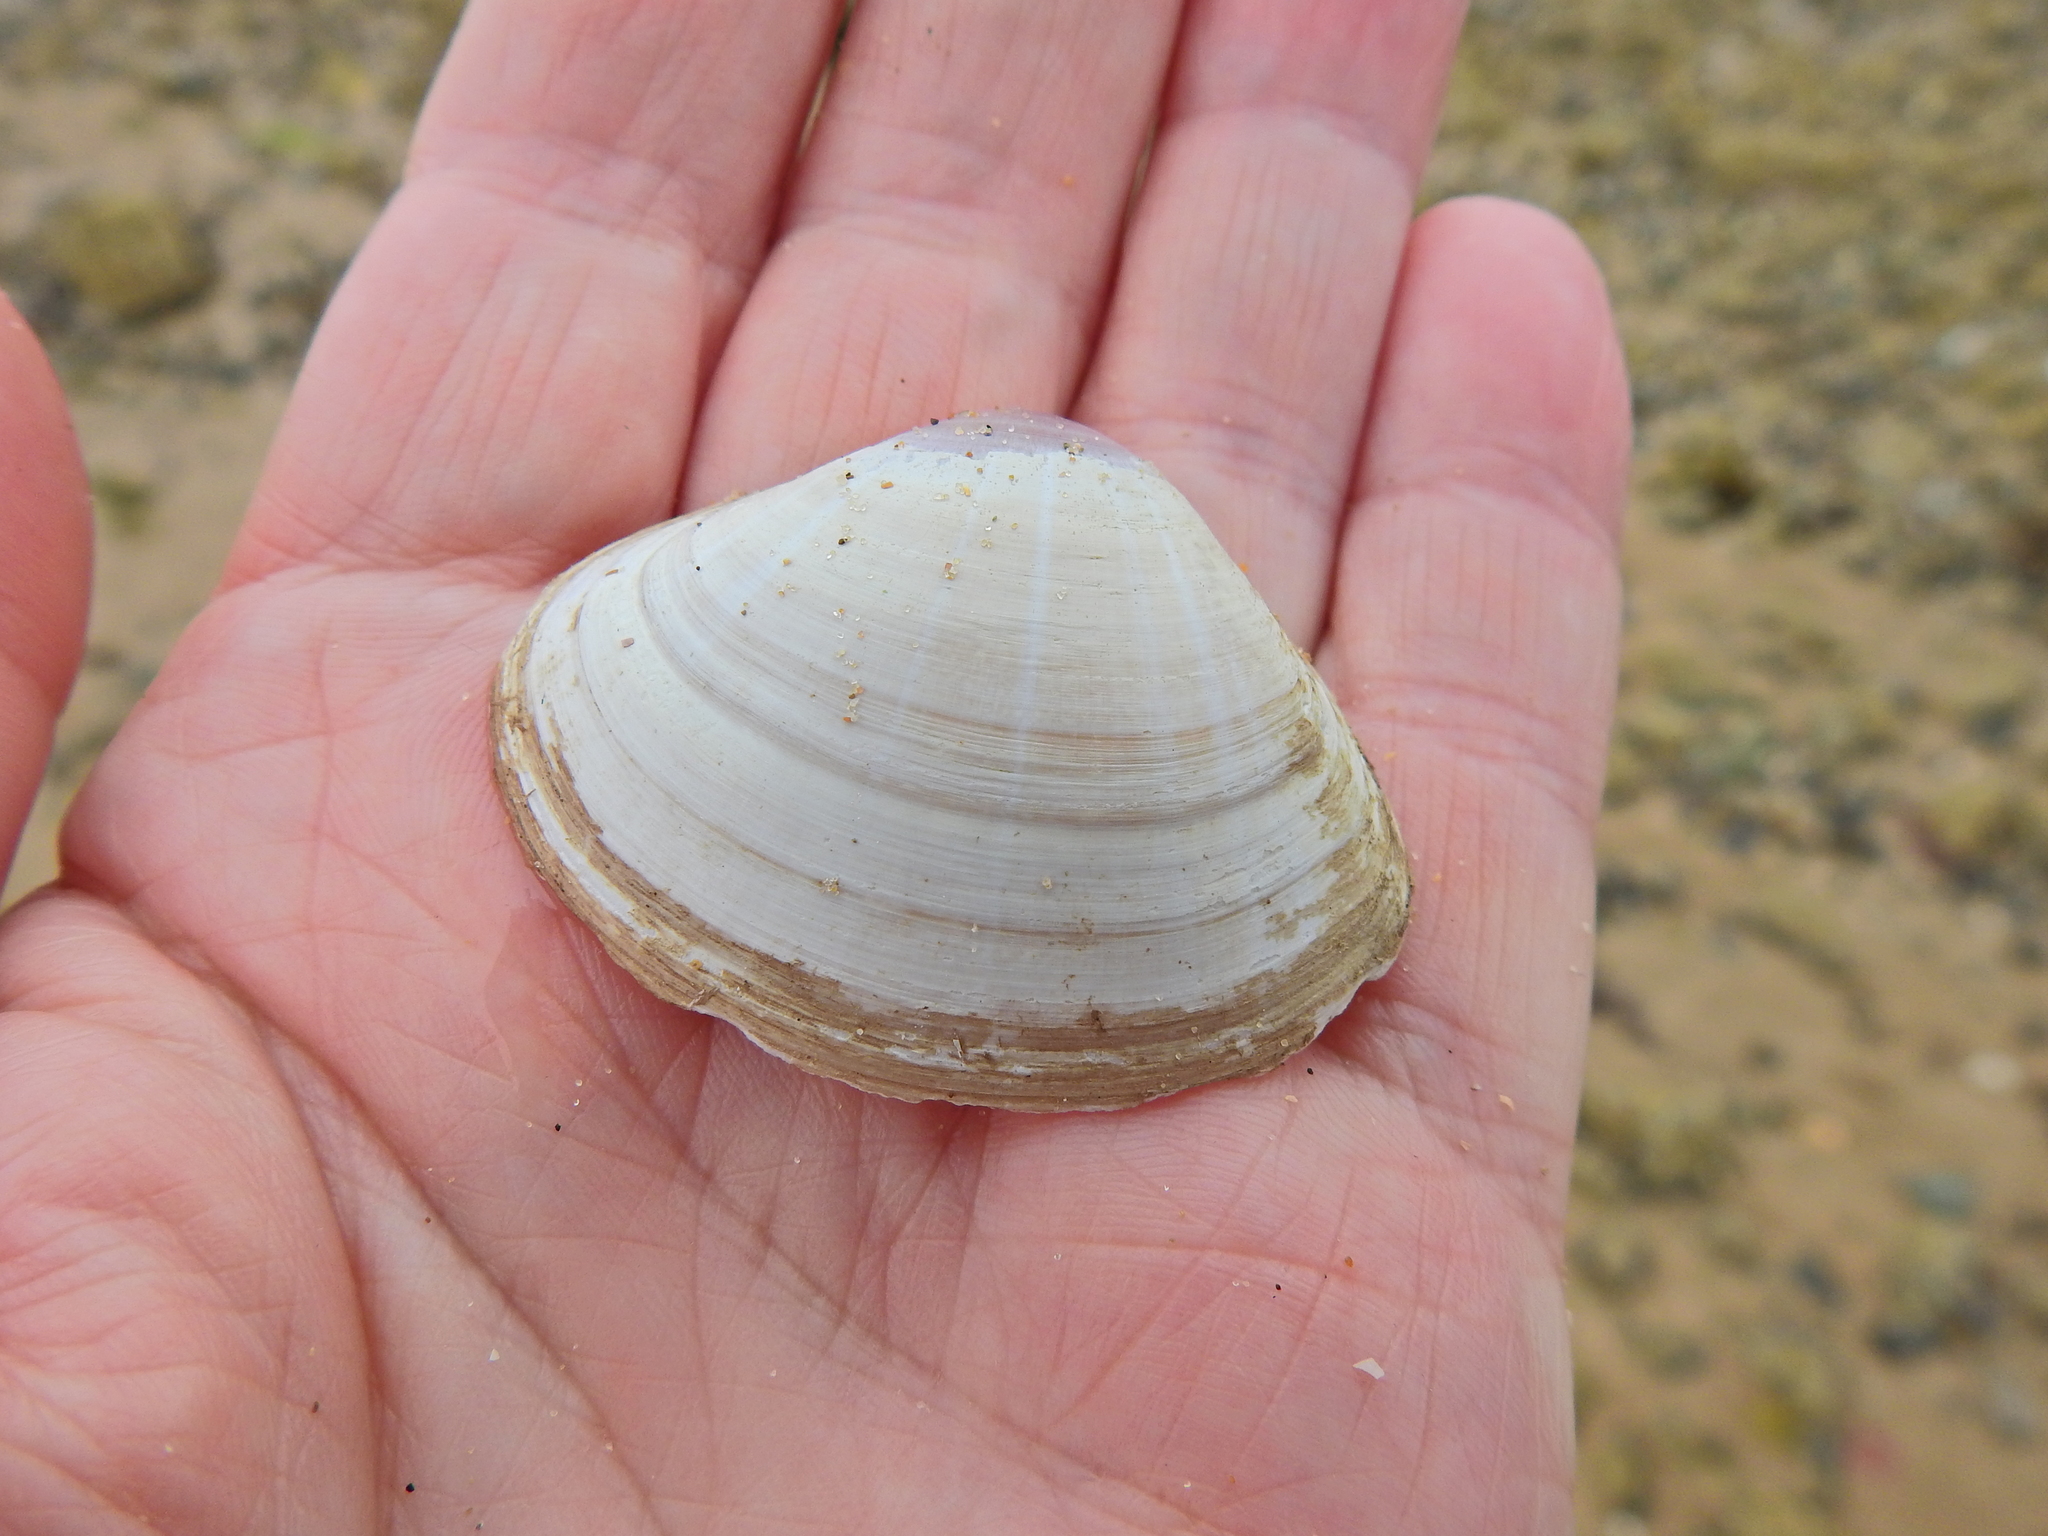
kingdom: Animalia
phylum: Mollusca
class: Bivalvia
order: Venerida
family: Mactridae
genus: Mactra
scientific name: Mactra stultorum
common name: Rayed trough shell
